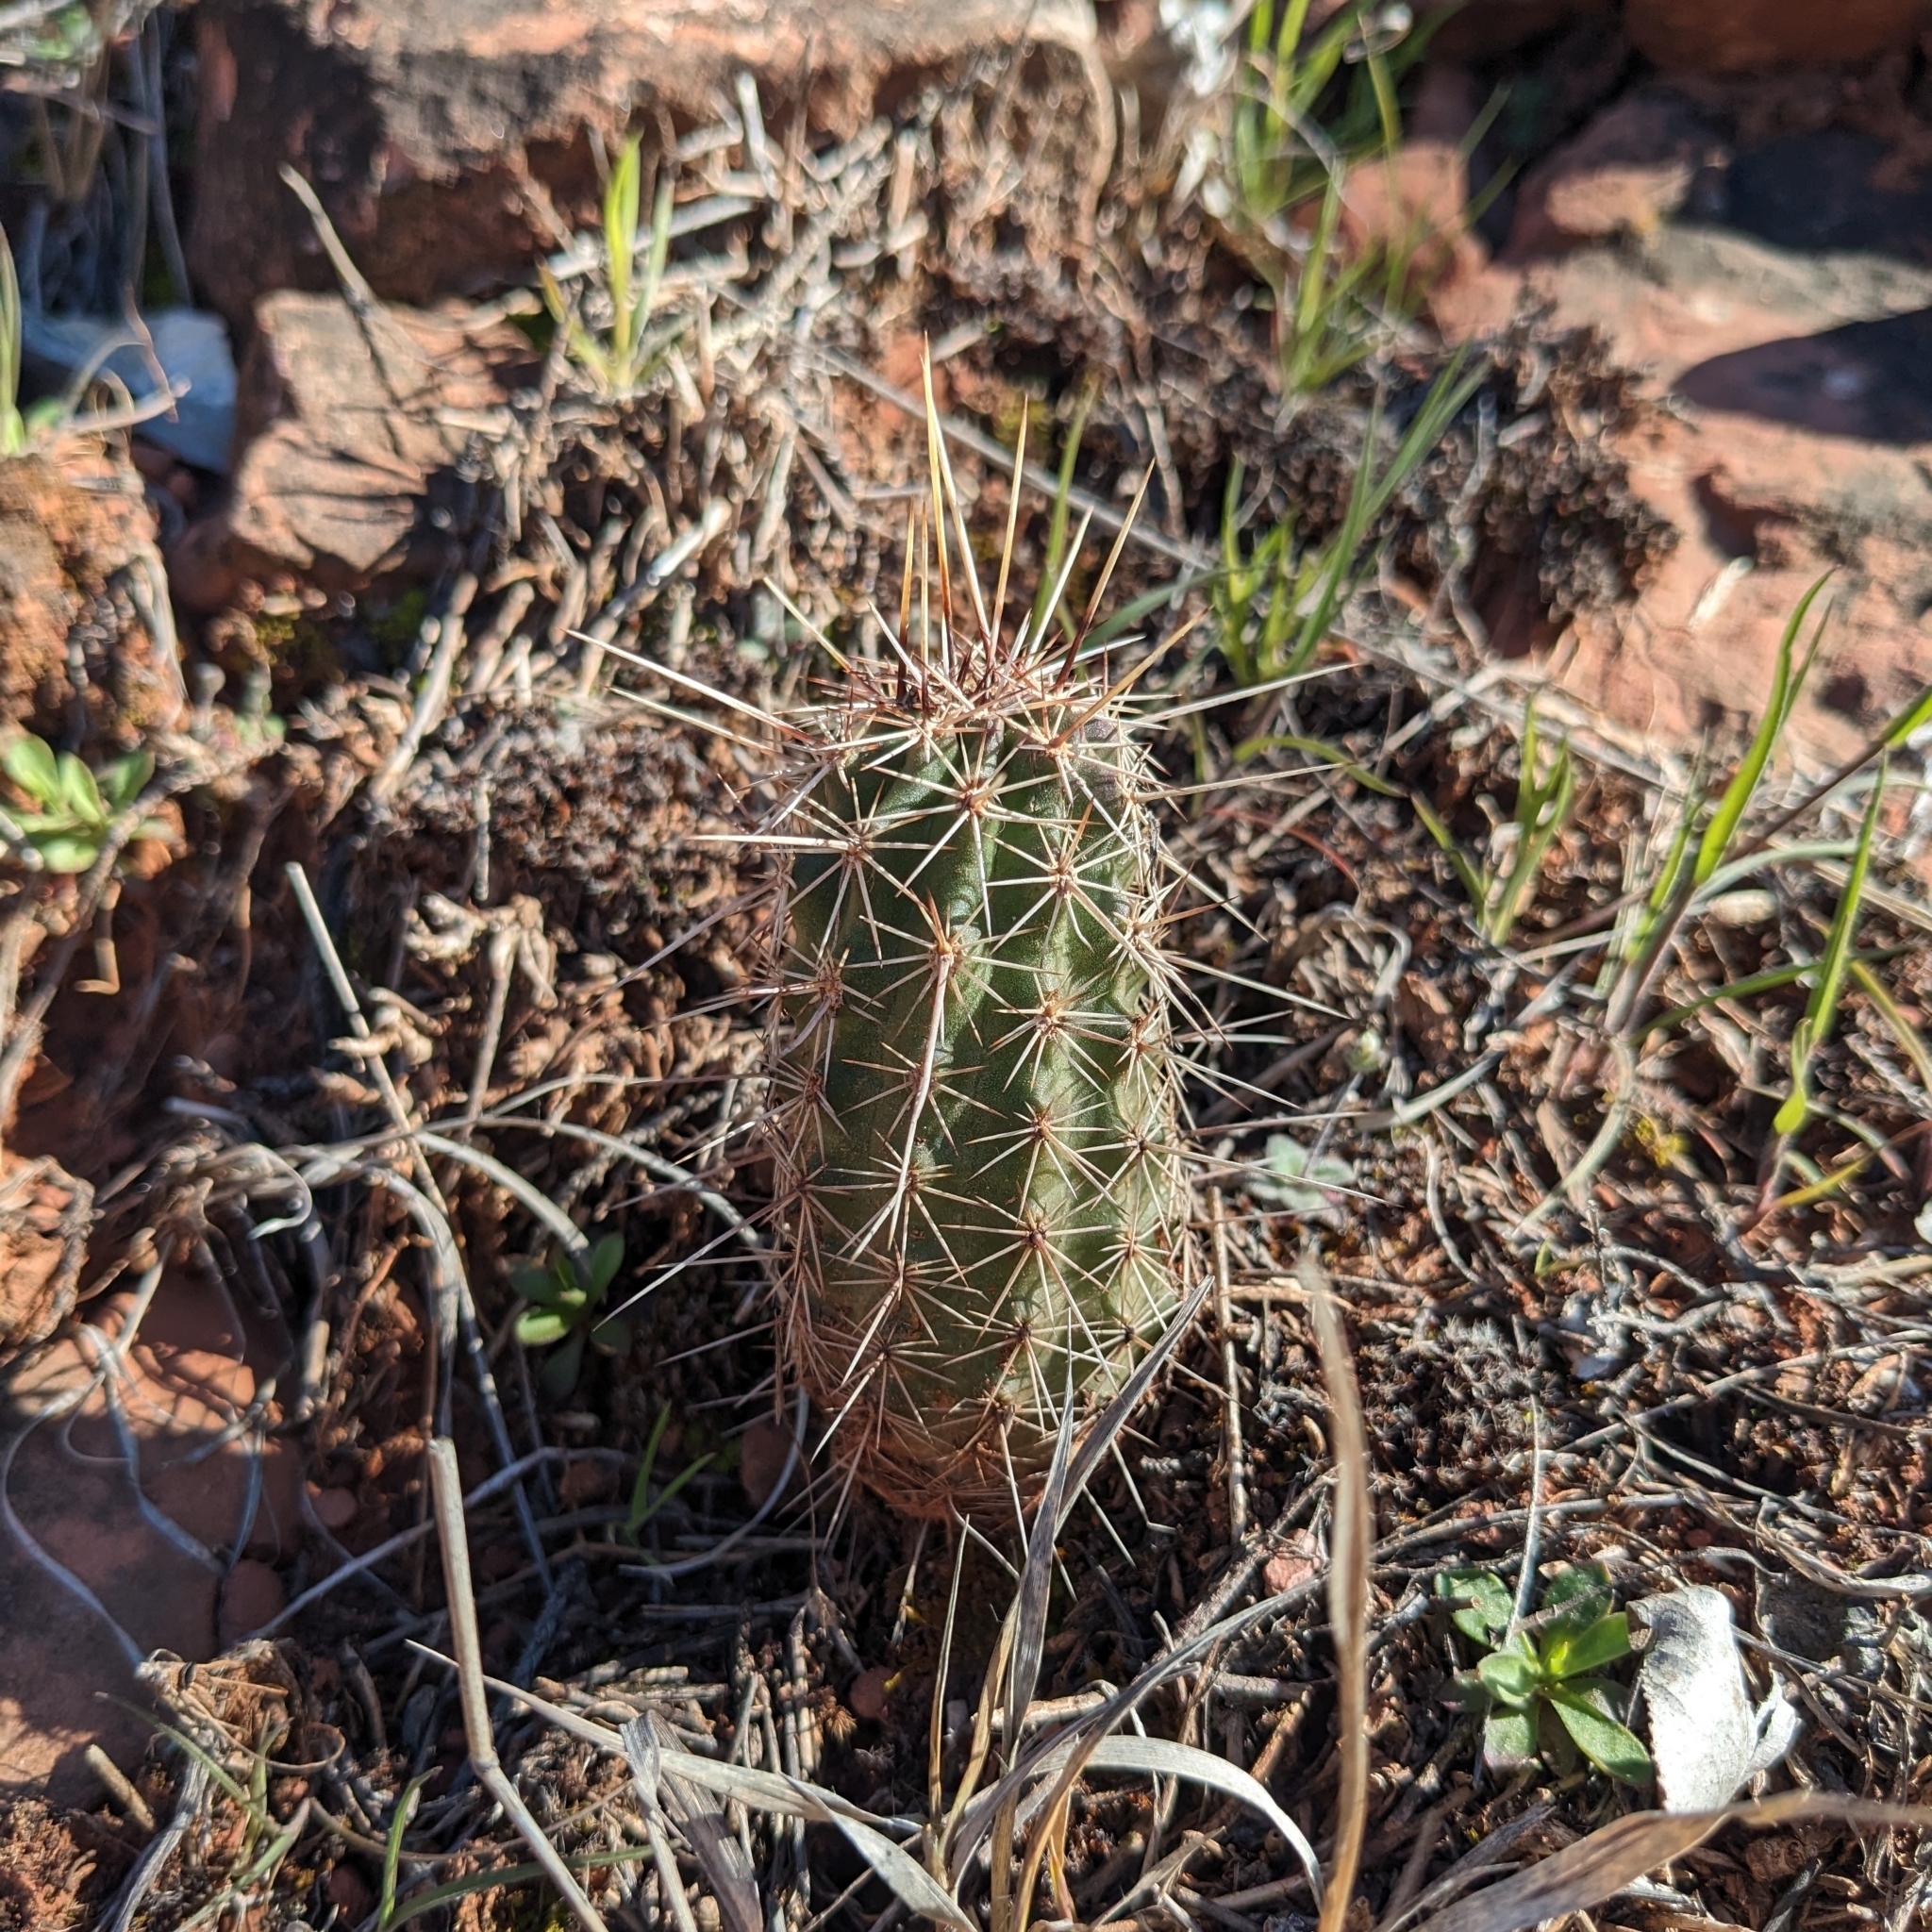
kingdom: Plantae
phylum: Tracheophyta
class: Magnoliopsida
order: Caryophyllales
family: Cactaceae
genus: Echinocereus
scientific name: Echinocereus fasciculatus
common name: Bundle hedgehog
